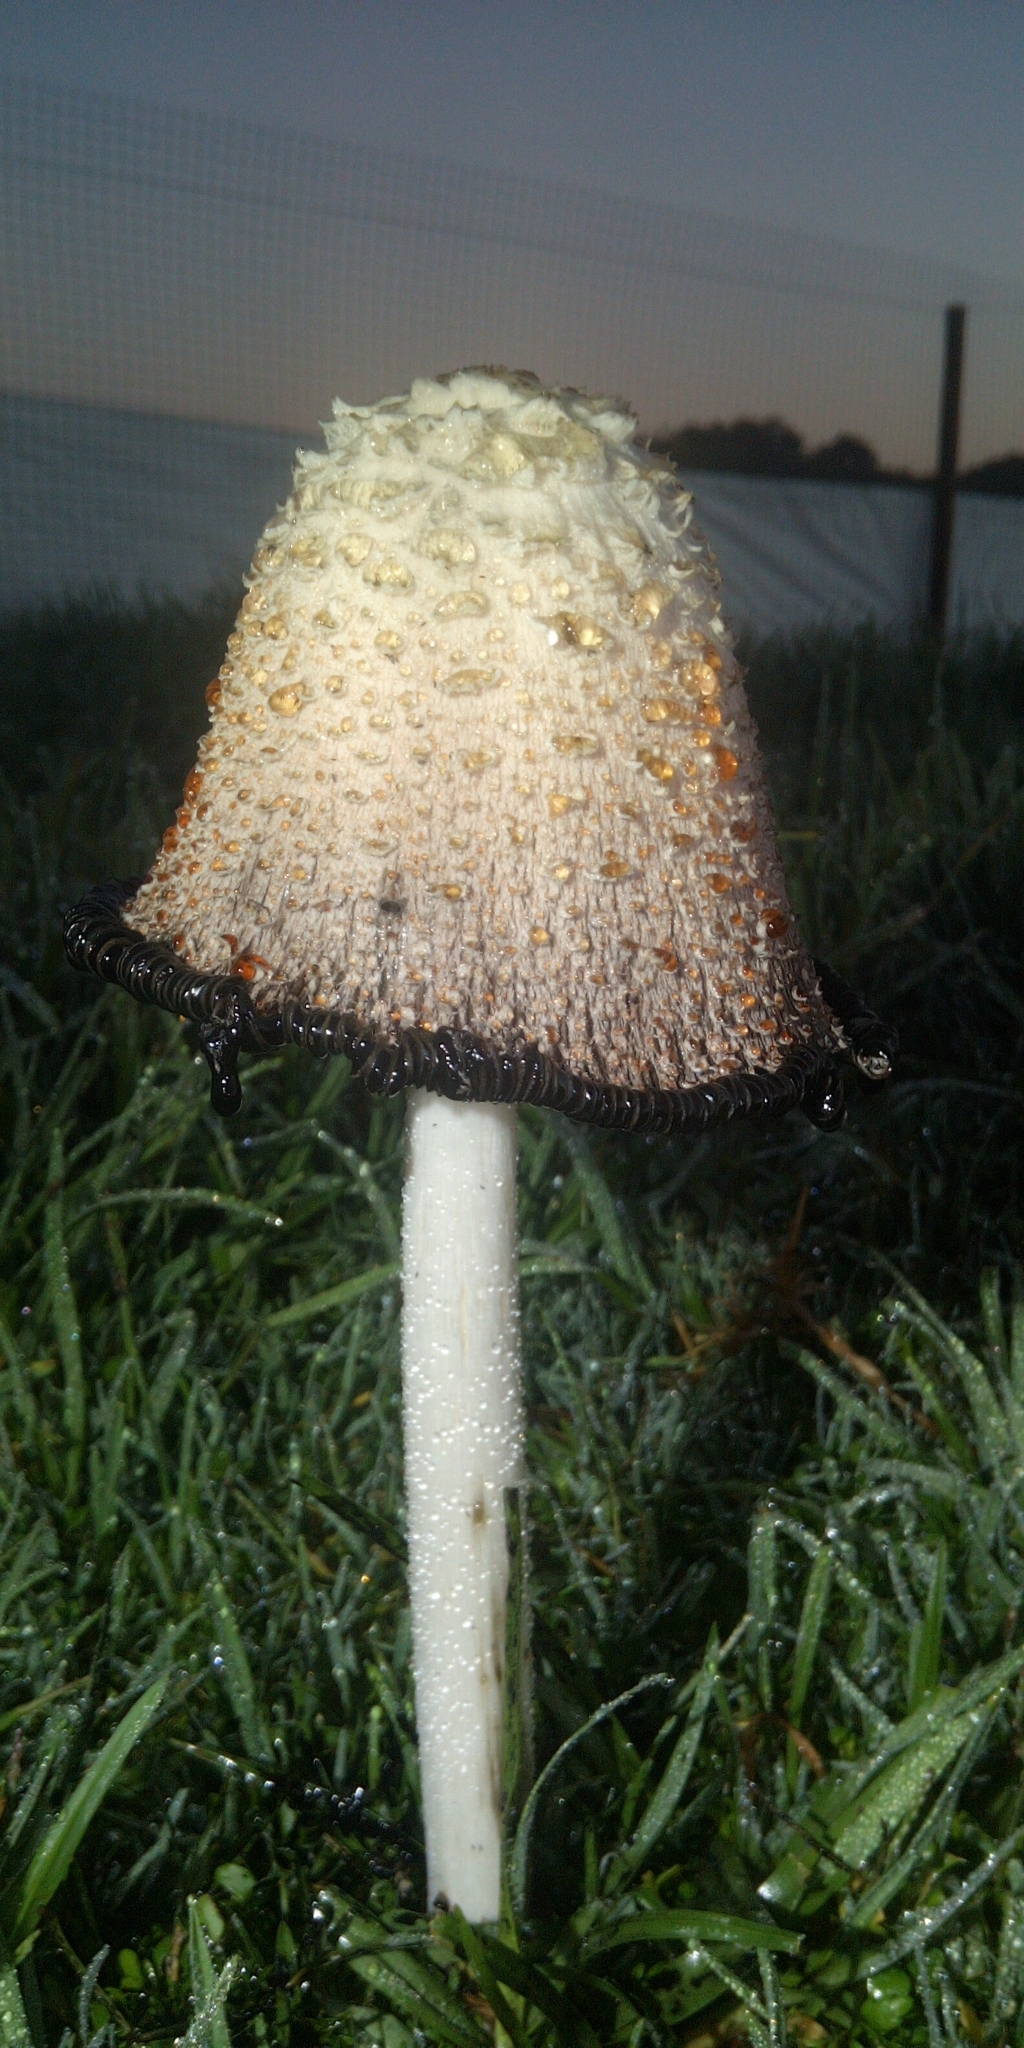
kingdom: Fungi
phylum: Basidiomycota
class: Agaricomycetes
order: Agaricales
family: Agaricaceae
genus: Coprinus
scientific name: Coprinus comatus
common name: Lawyer's wig
